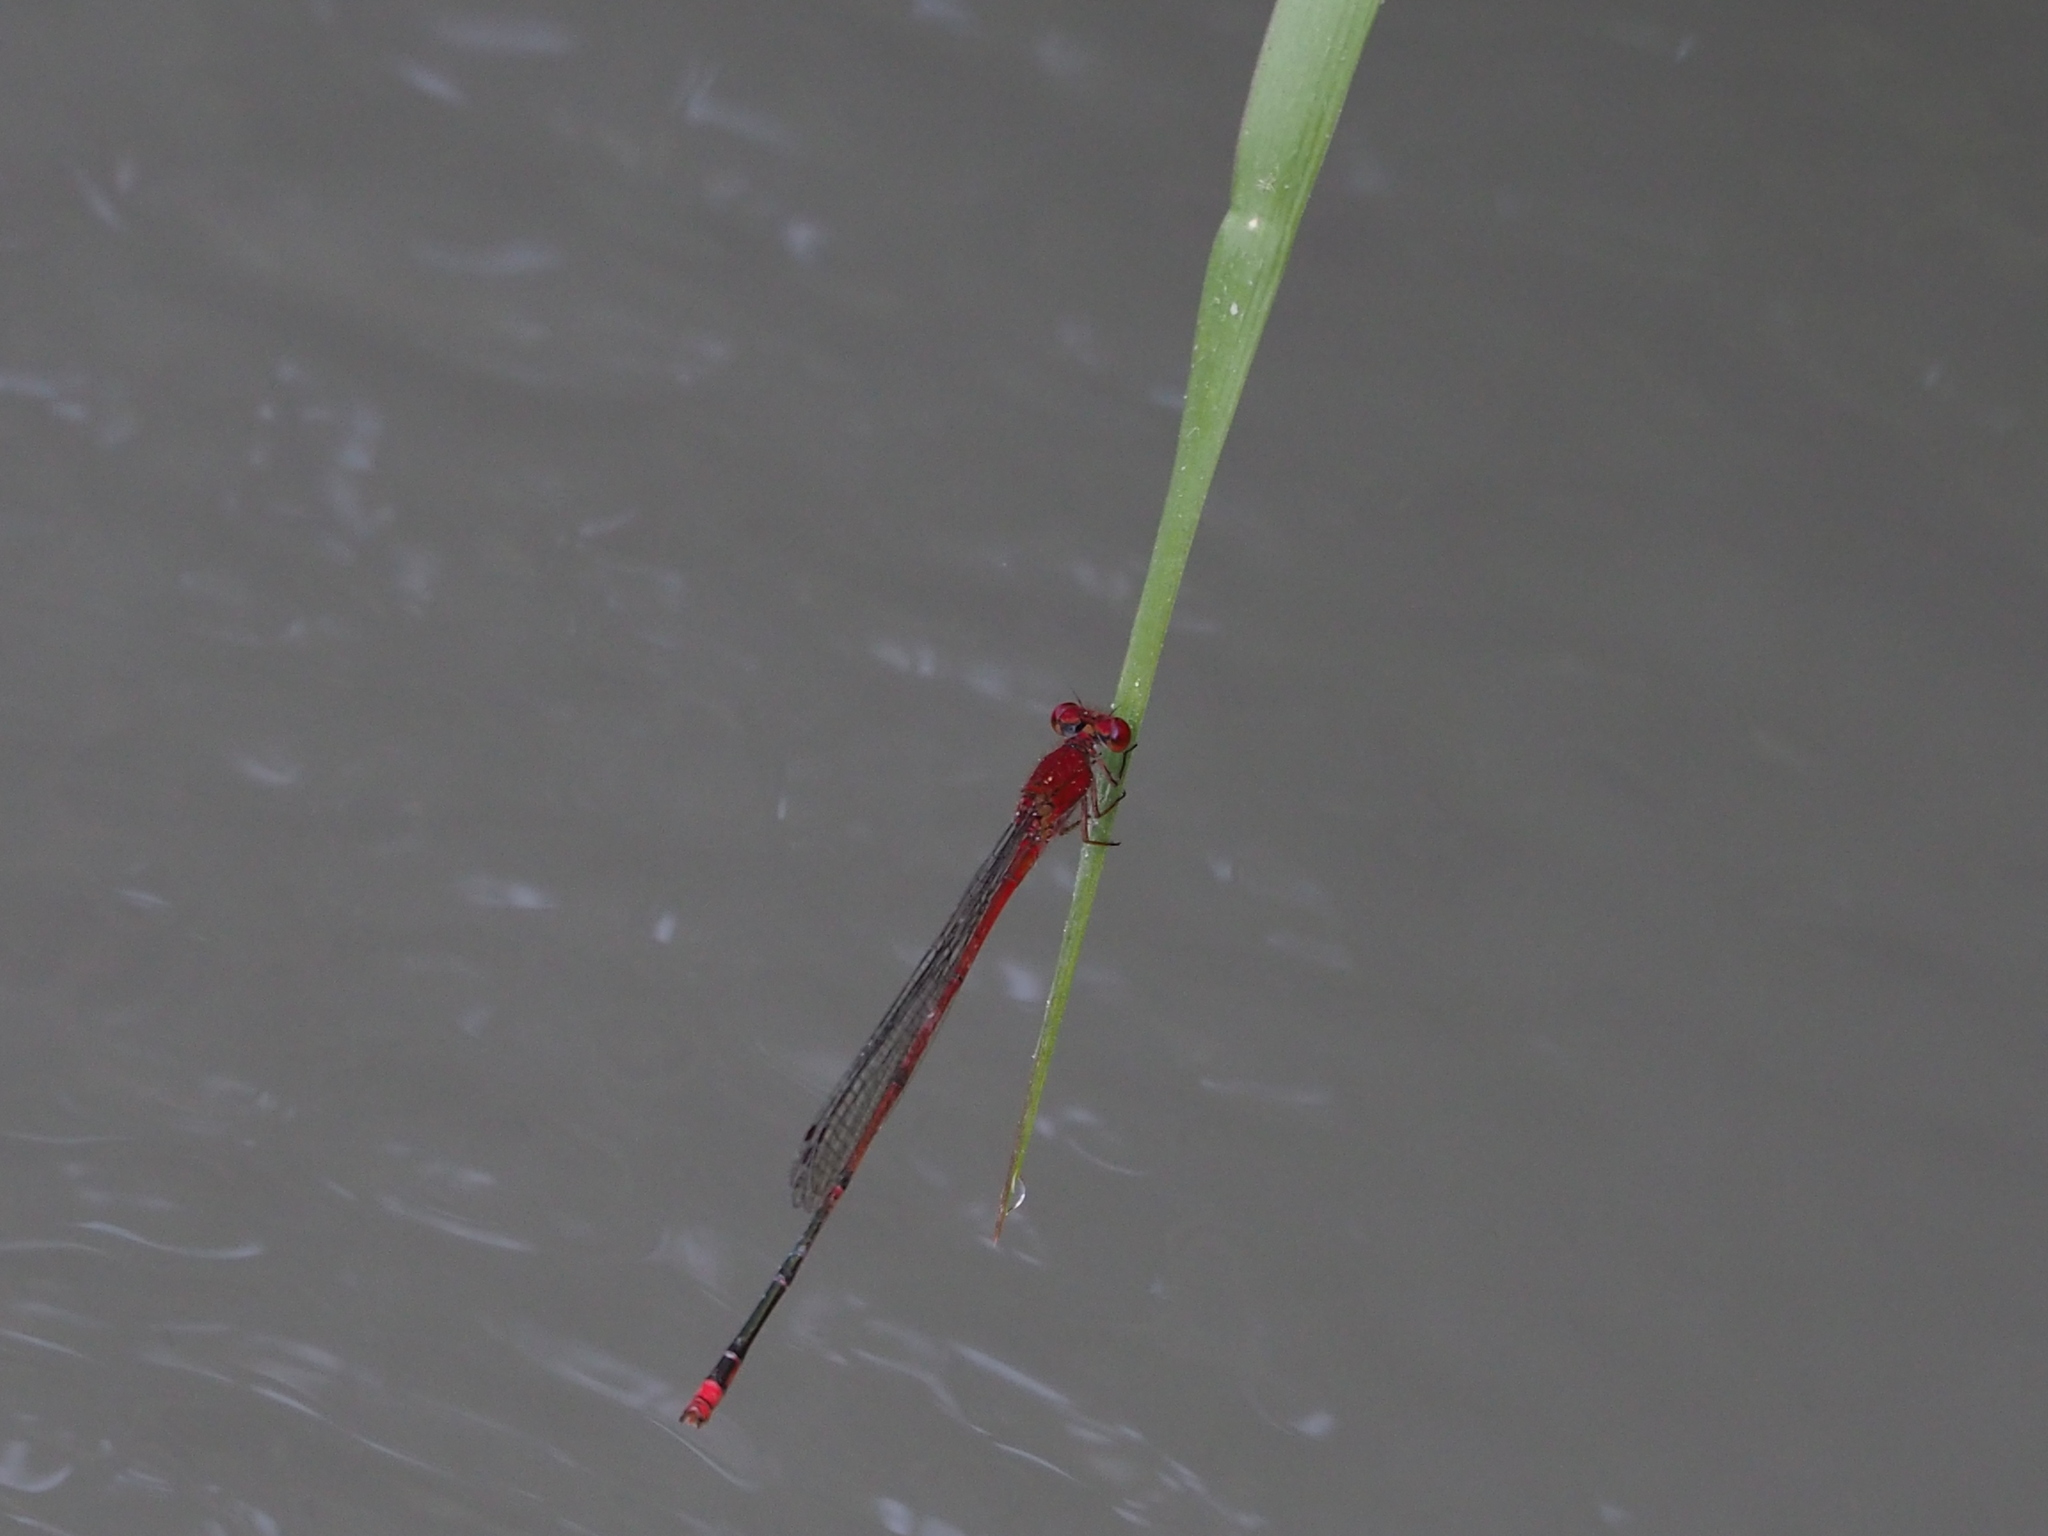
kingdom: Animalia
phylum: Arthropoda
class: Insecta
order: Odonata
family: Coenagrionidae
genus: Pseudagrion
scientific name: Pseudagrion pilidorsum
